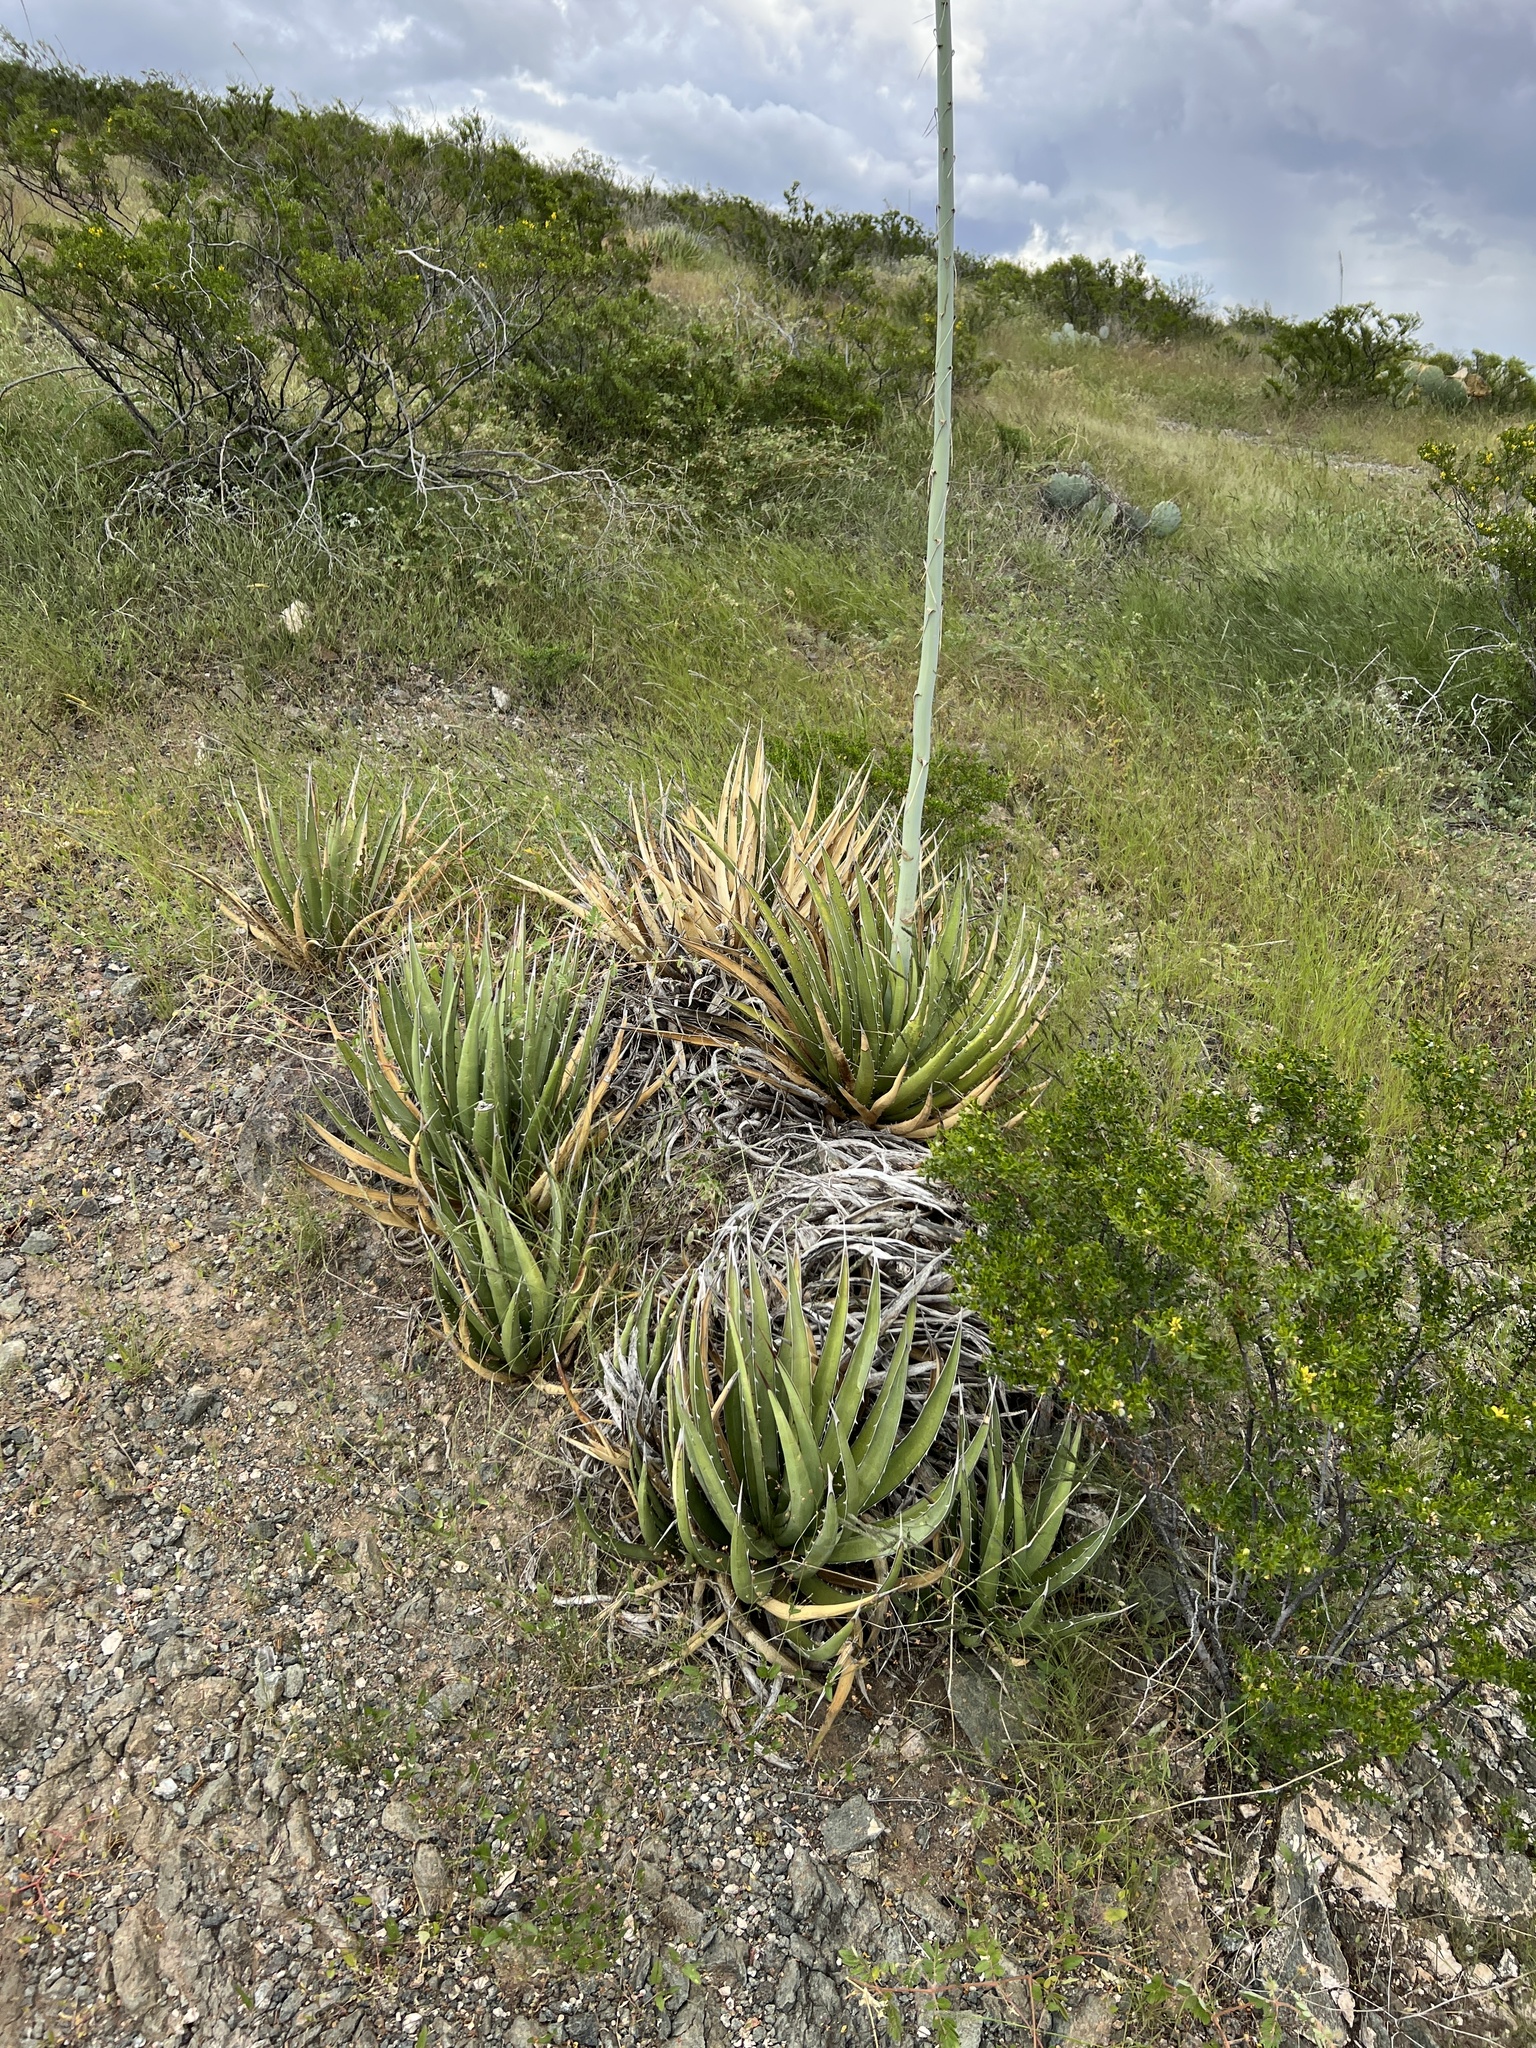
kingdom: Plantae
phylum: Tracheophyta
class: Liliopsida
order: Asparagales
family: Asparagaceae
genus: Agave
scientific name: Agave lechuguilla
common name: Lecheguilla agave
